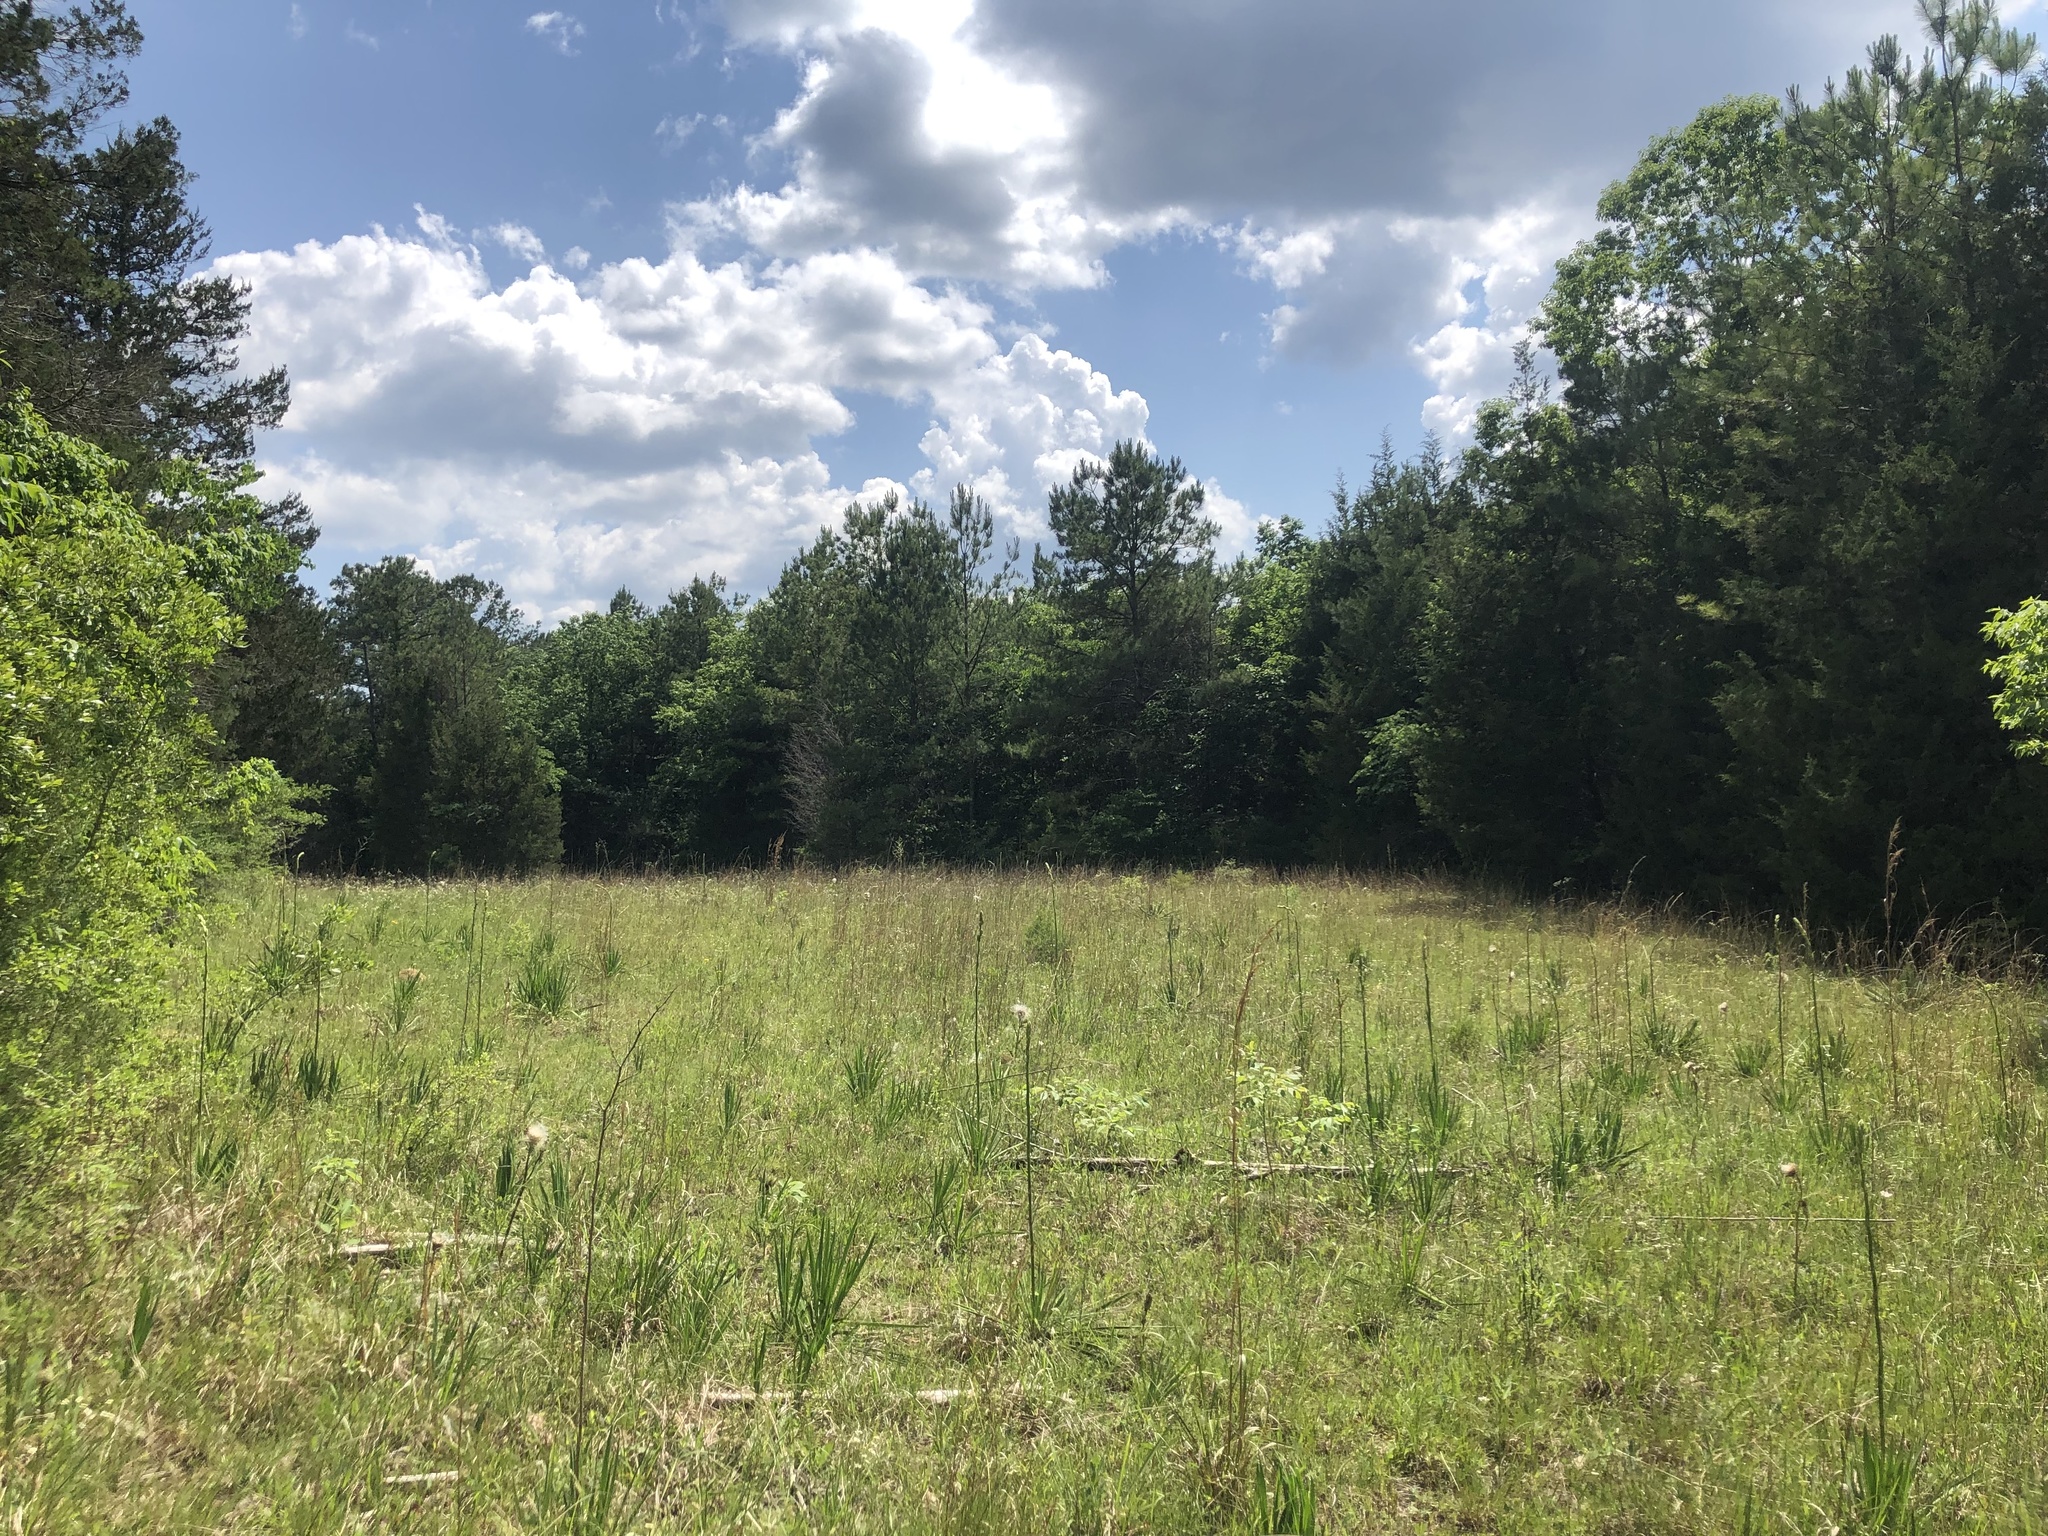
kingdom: Plantae
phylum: Tracheophyta
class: Liliopsida
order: Asparagales
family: Asparagaceae
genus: Yucca
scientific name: Yucca flaccida
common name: Adam's-needle
